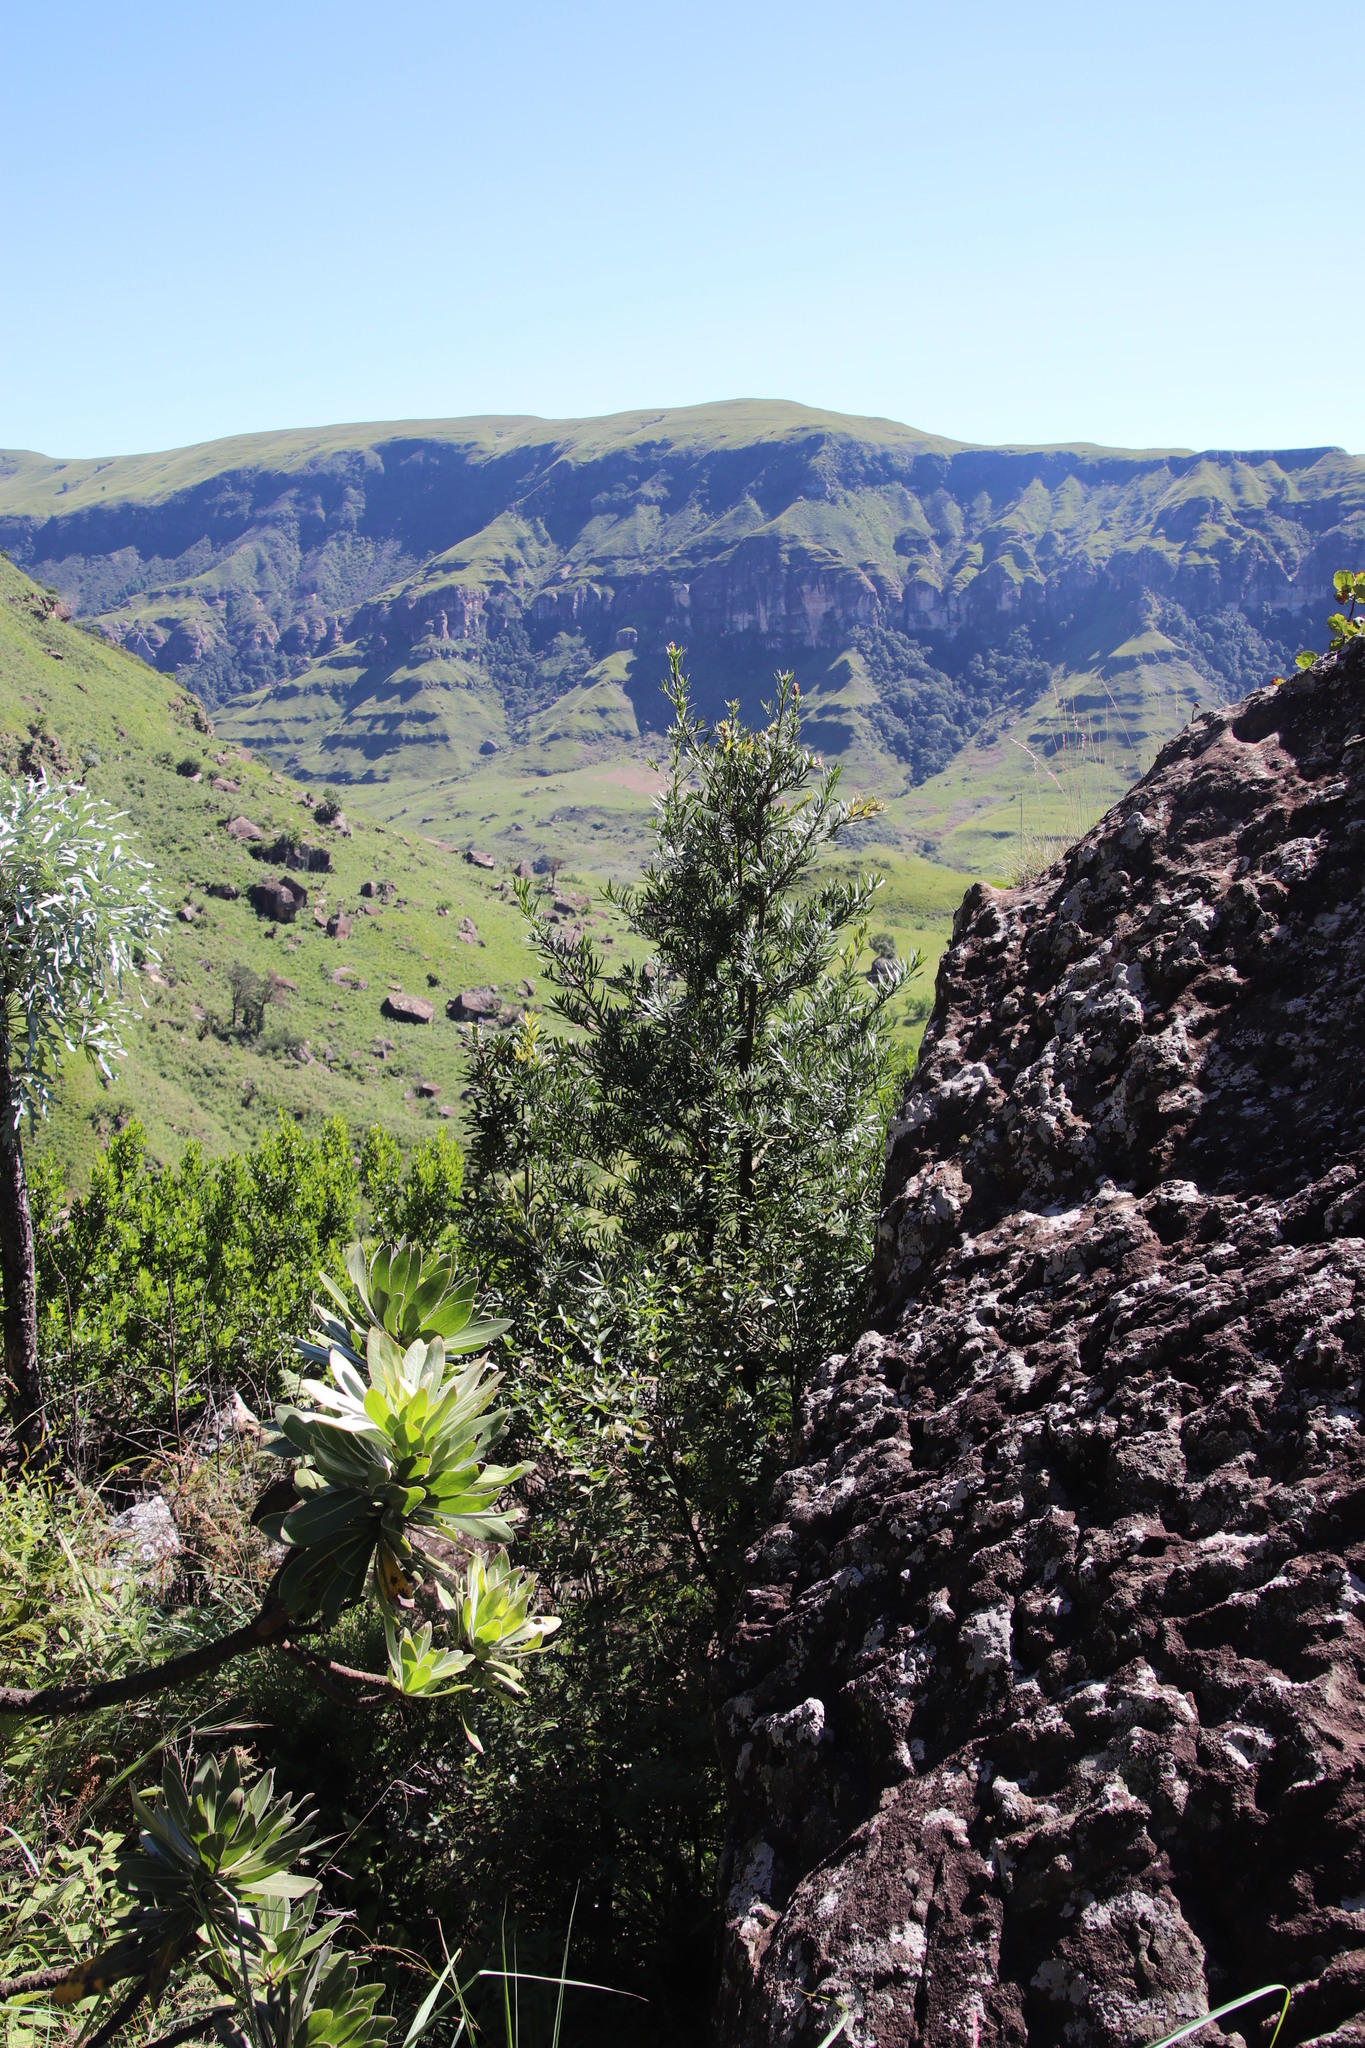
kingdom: Plantae
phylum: Tracheophyta
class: Pinopsida
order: Pinales
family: Podocarpaceae
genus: Podocarpus
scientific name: Podocarpus latifolius
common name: True yellowwood
